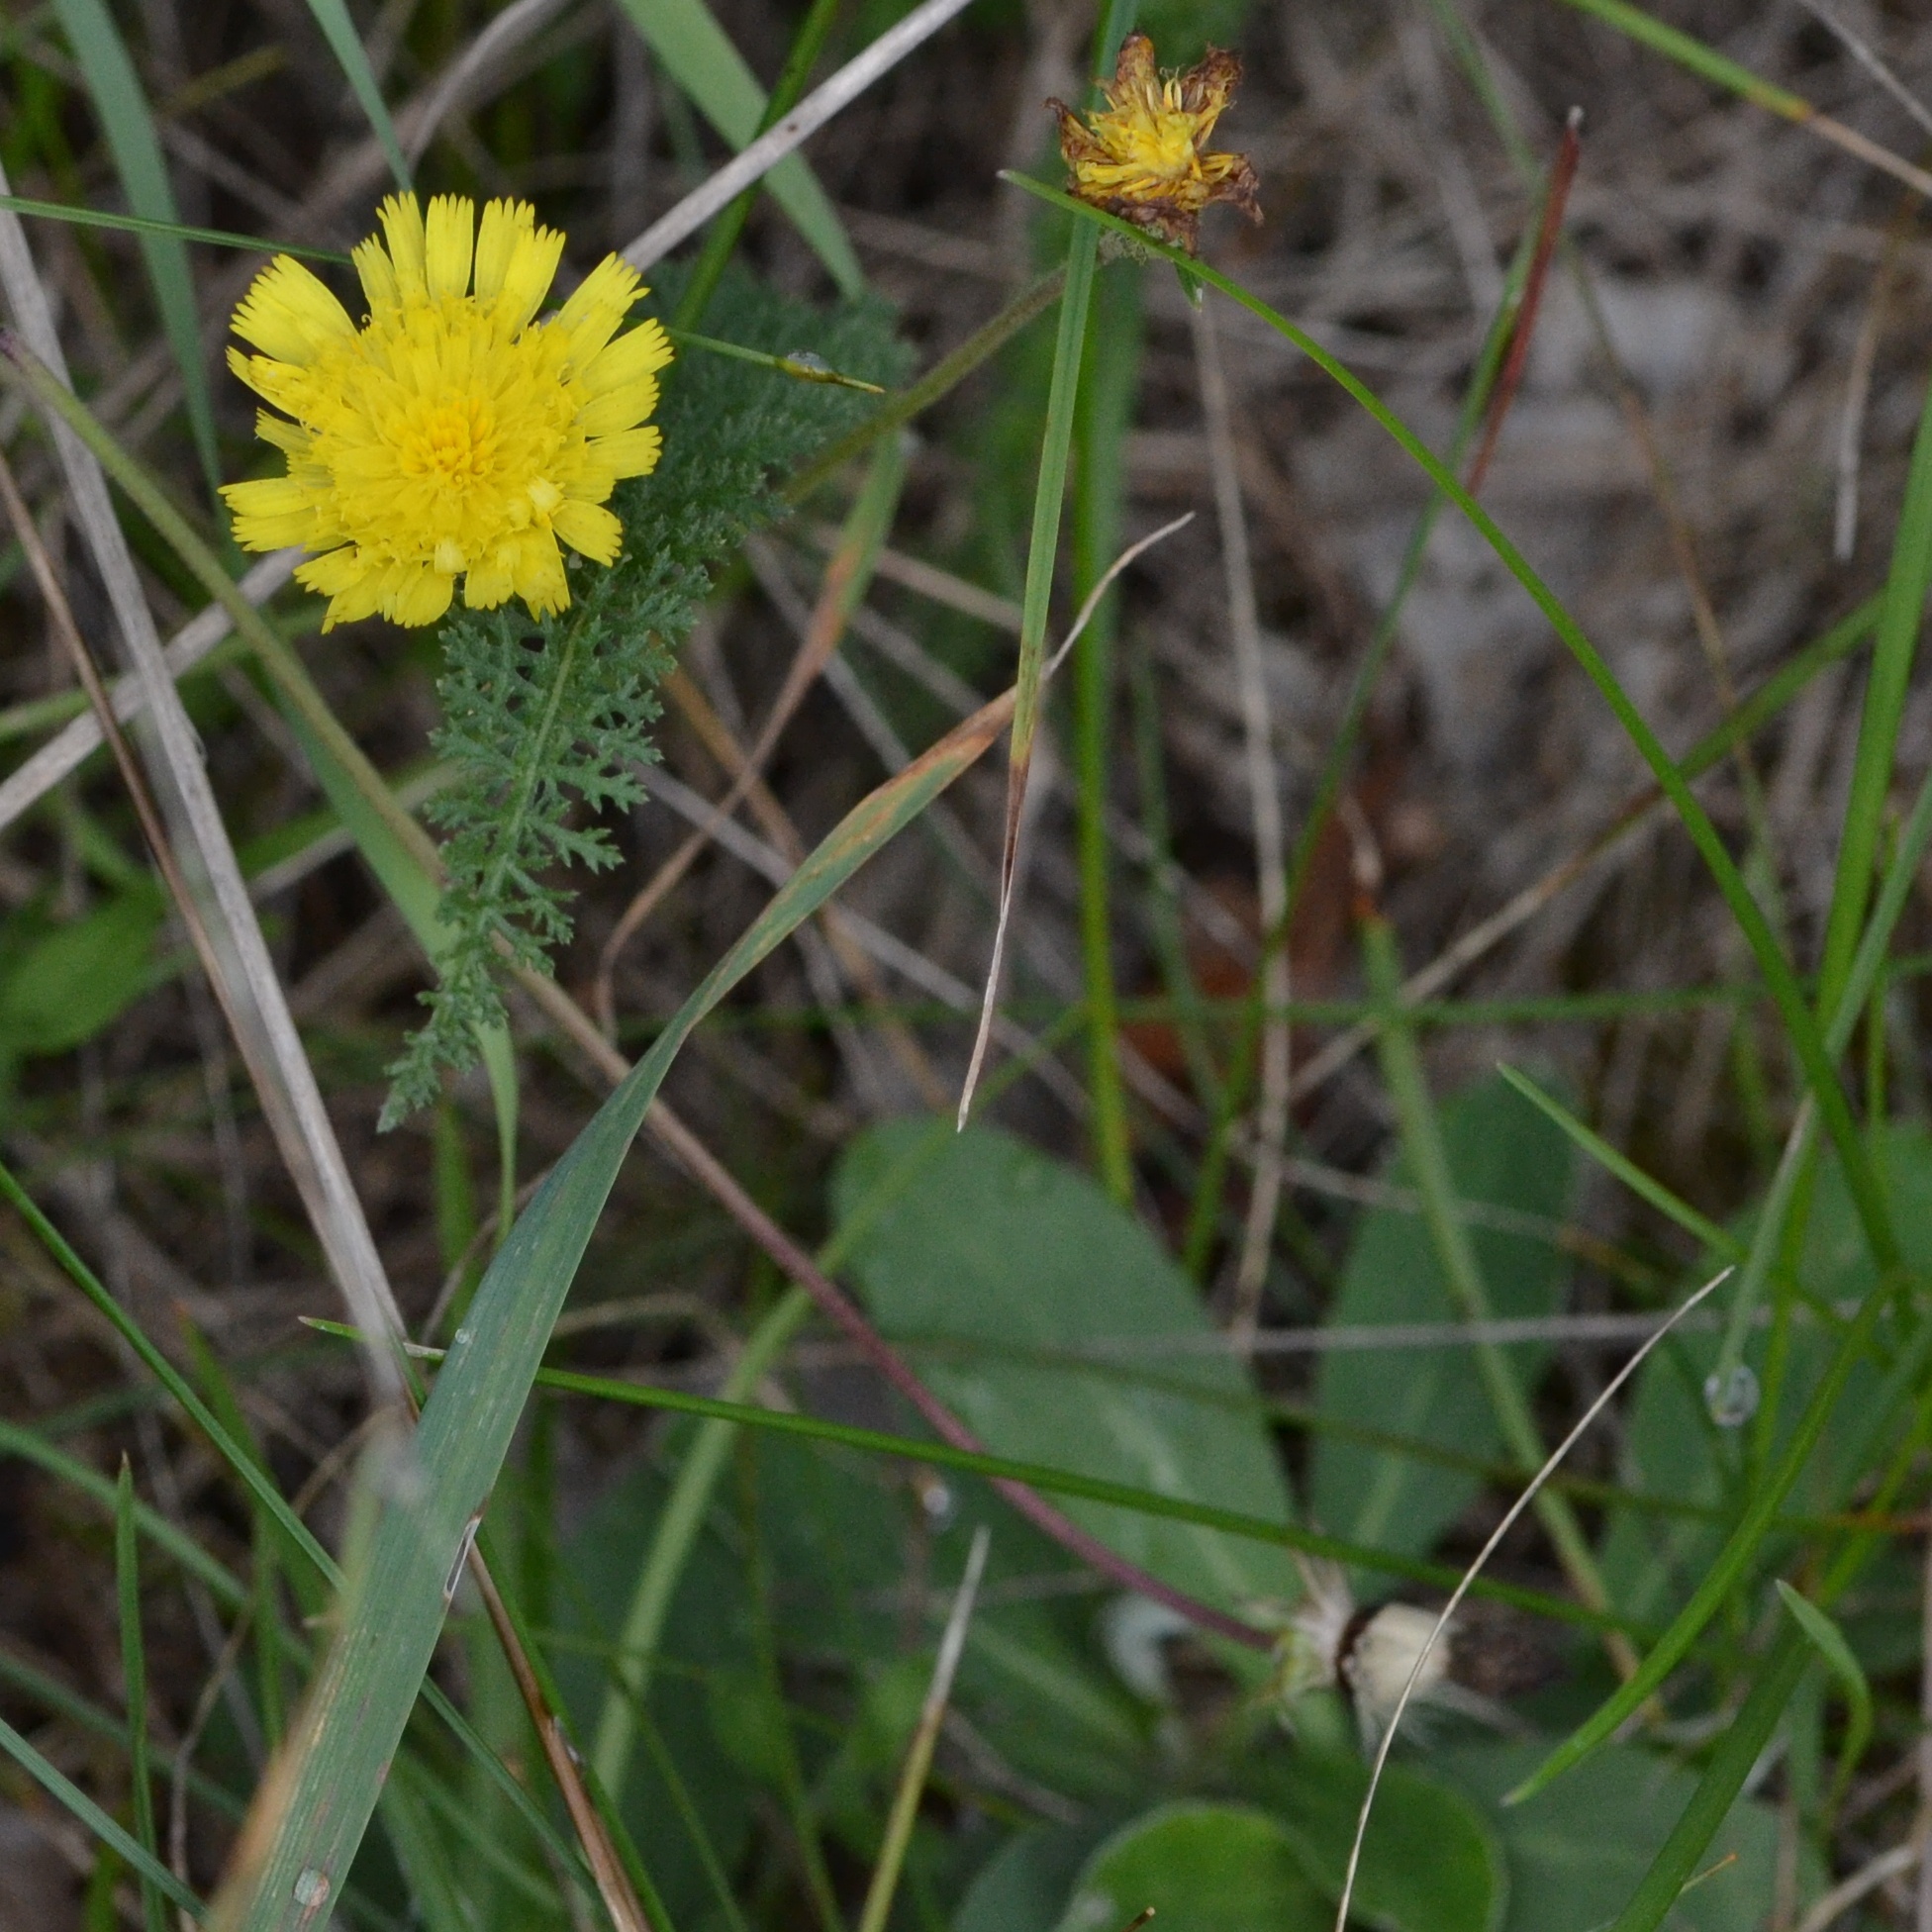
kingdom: Plantae
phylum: Tracheophyta
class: Magnoliopsida
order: Asterales
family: Asteraceae
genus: Pilosella
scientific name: Pilosella officinarum
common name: Mouse-ear hawkweed
